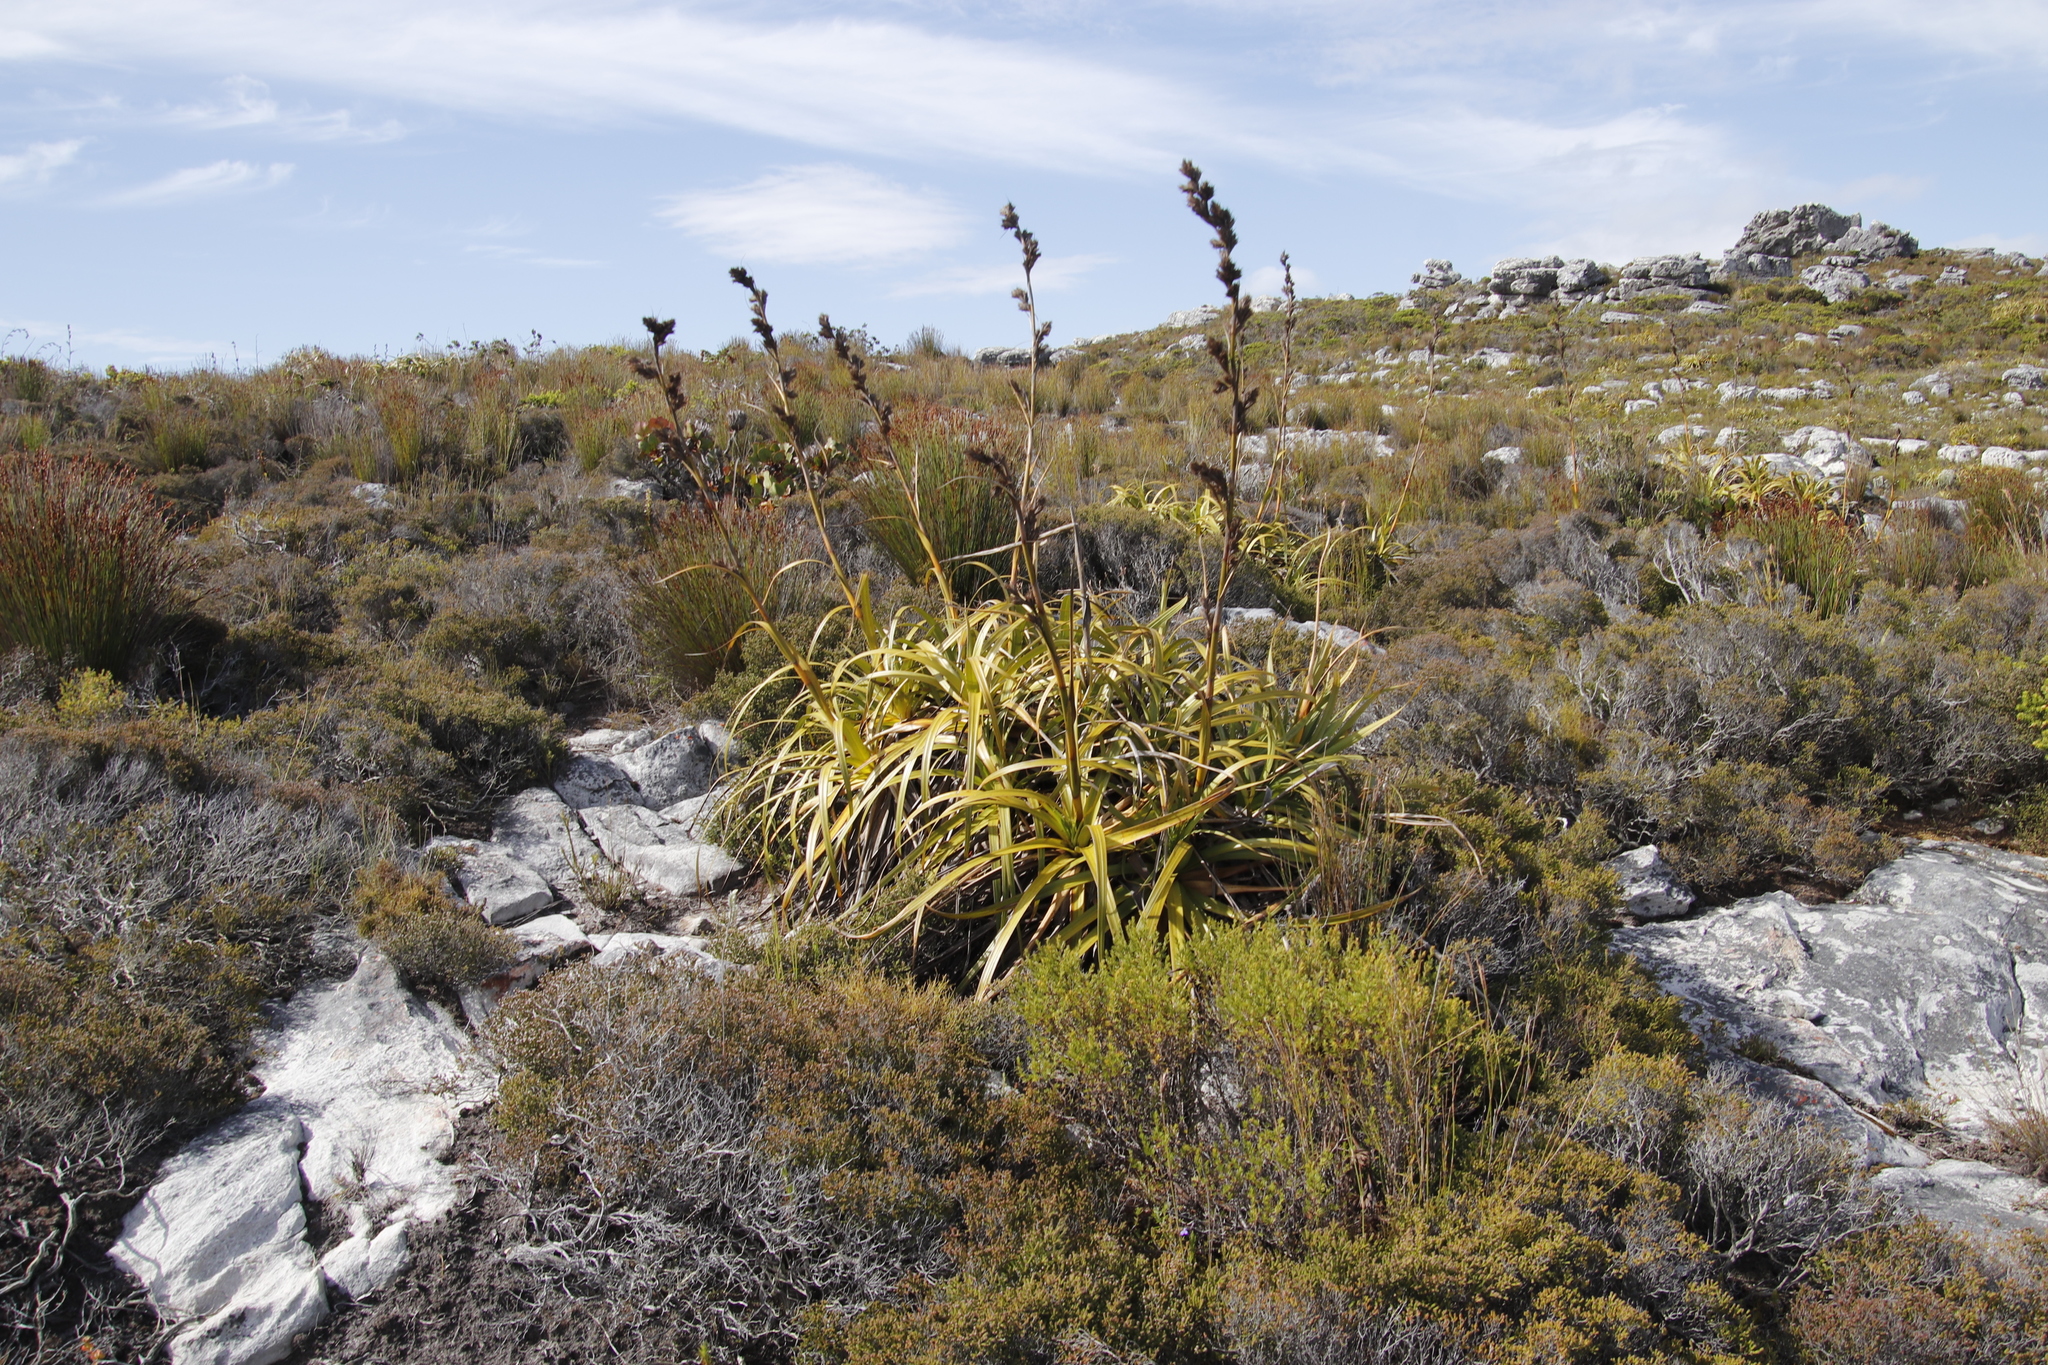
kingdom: Plantae
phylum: Tracheophyta
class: Liliopsida
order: Poales
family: Cyperaceae
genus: Tetraria
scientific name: Tetraria thermalis
